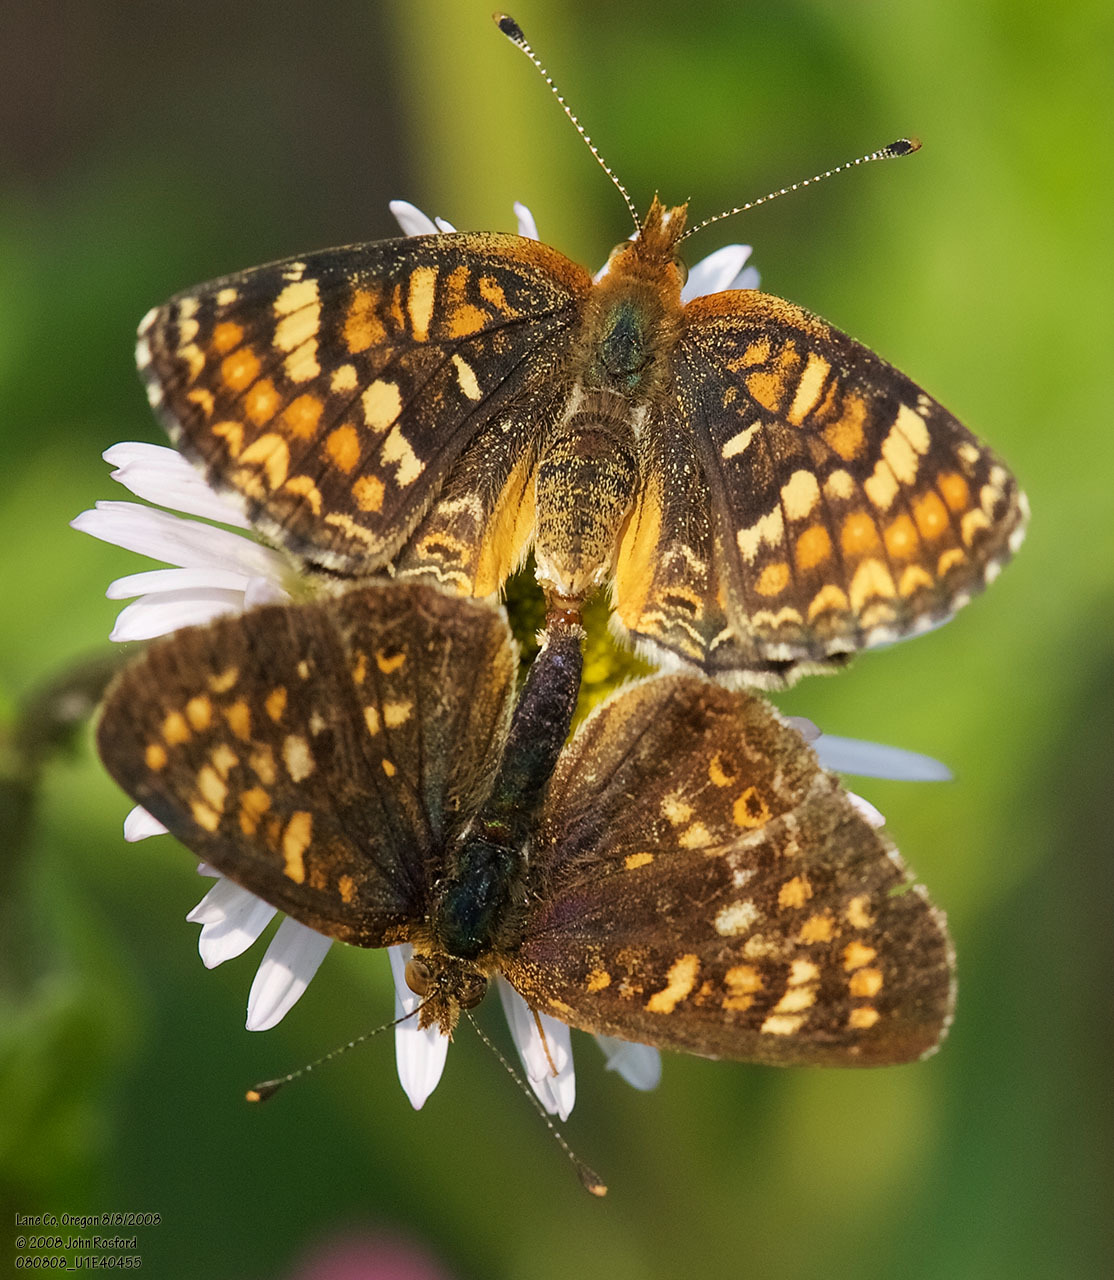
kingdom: Animalia
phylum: Arthropoda
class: Insecta
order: Lepidoptera
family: Nymphalidae
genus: Phyciodes
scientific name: Phyciodes tharos
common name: Pearl crescent
